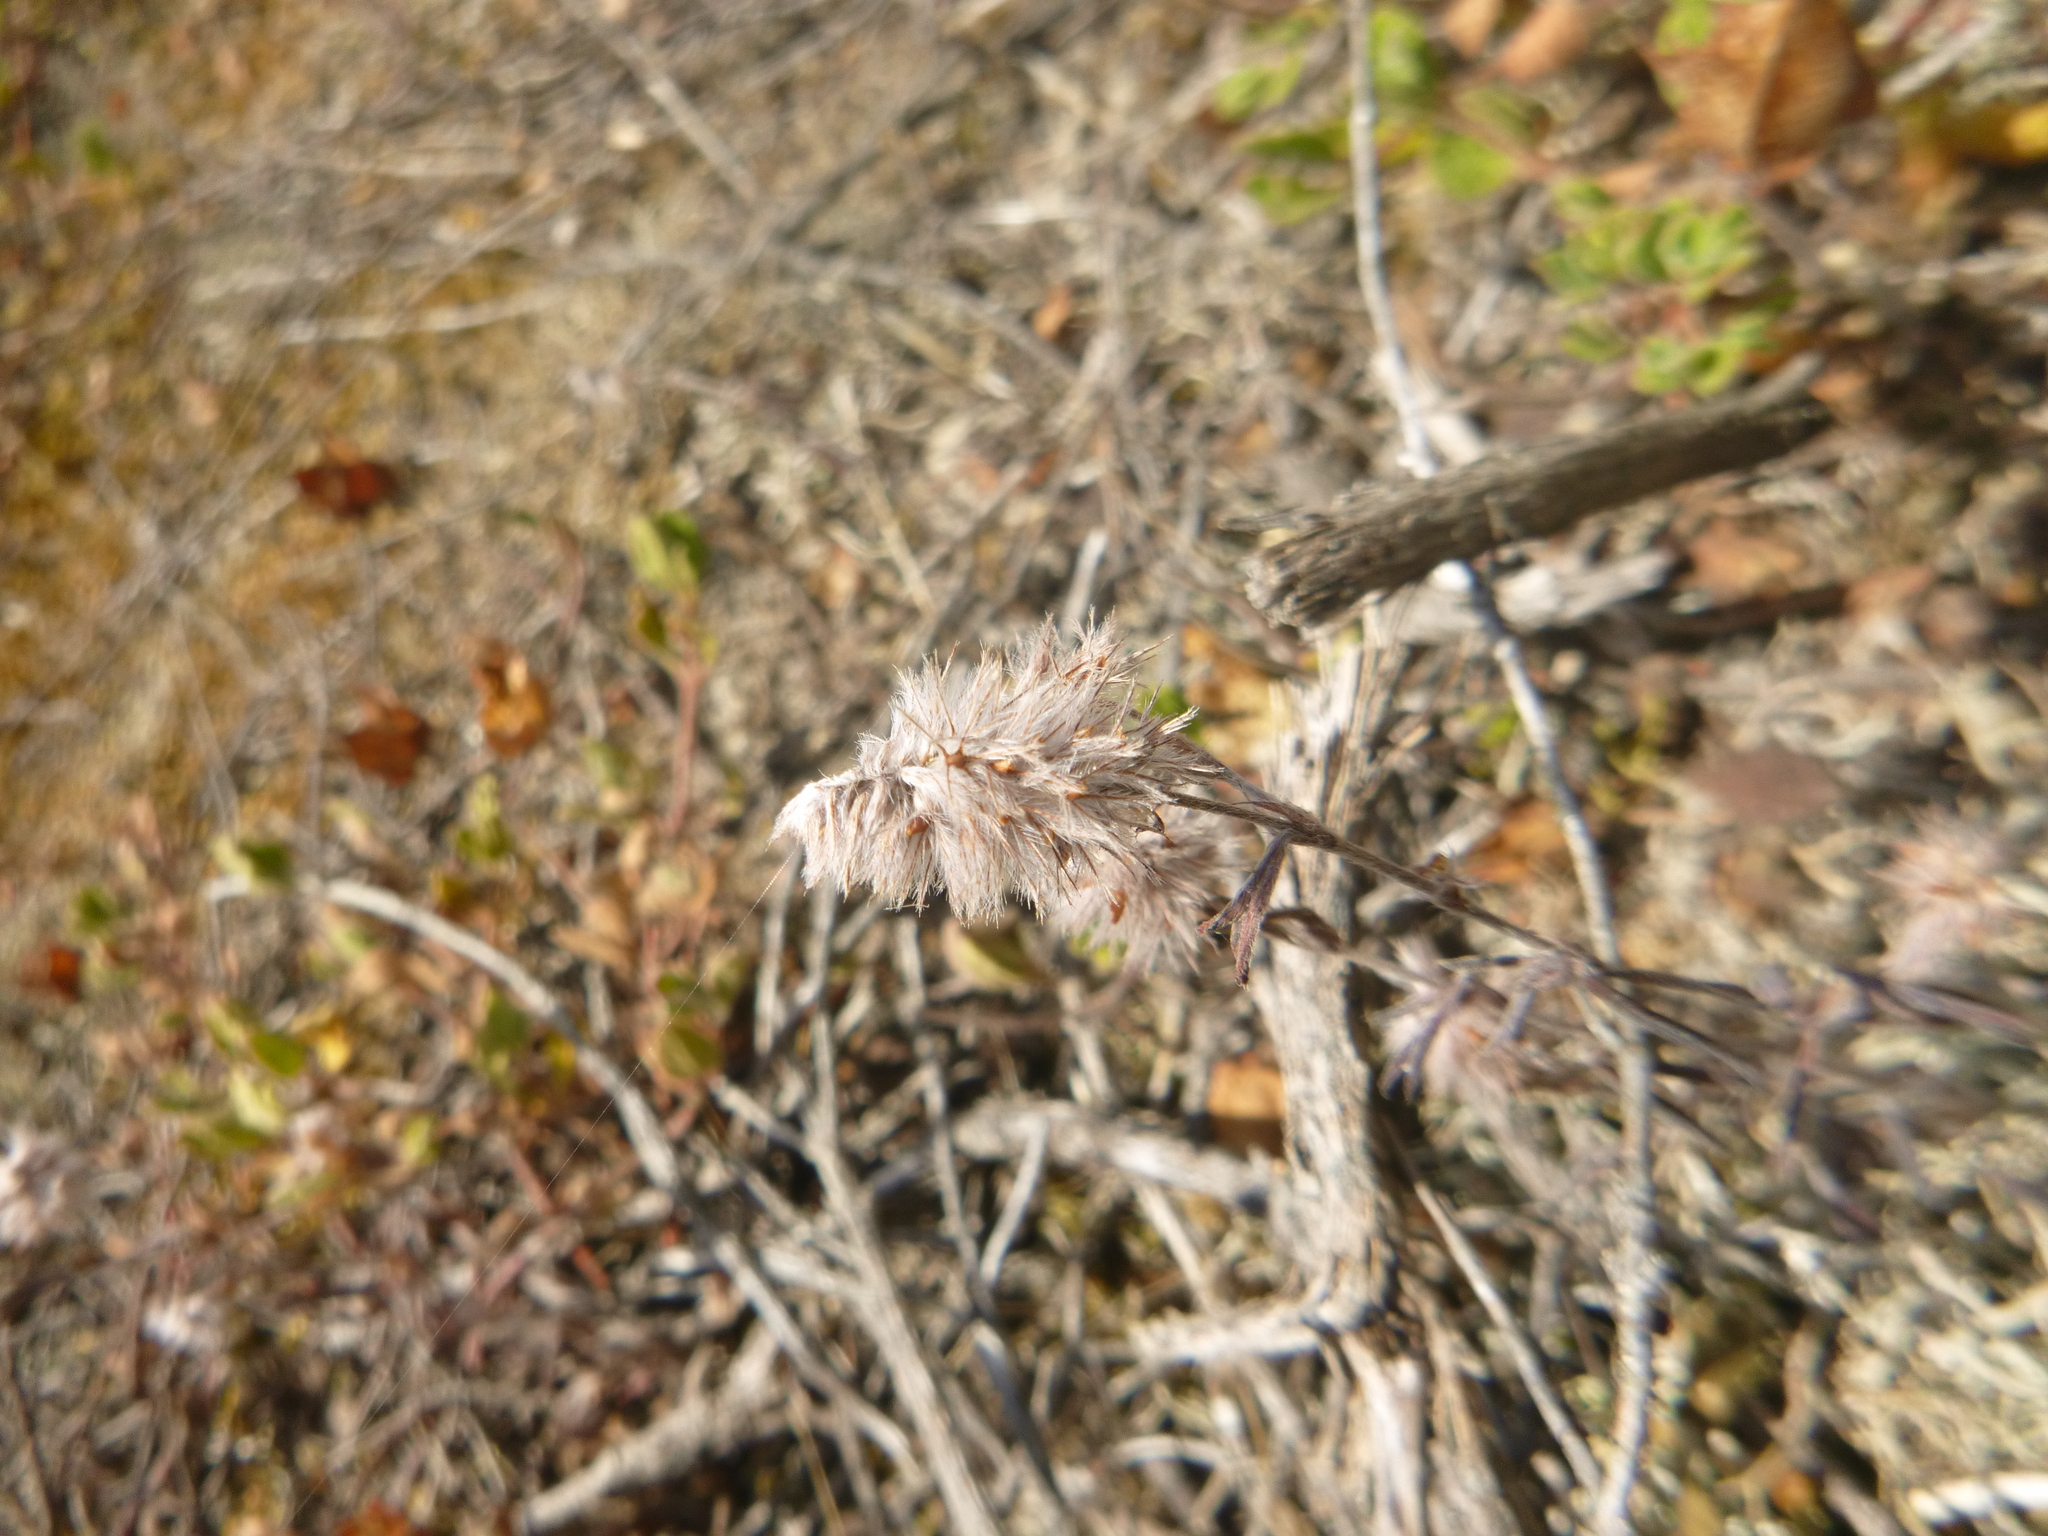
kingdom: Plantae
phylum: Tracheophyta
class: Magnoliopsida
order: Fabales
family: Fabaceae
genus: Trifolium
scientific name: Trifolium arvense
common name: Hare's-foot clover
